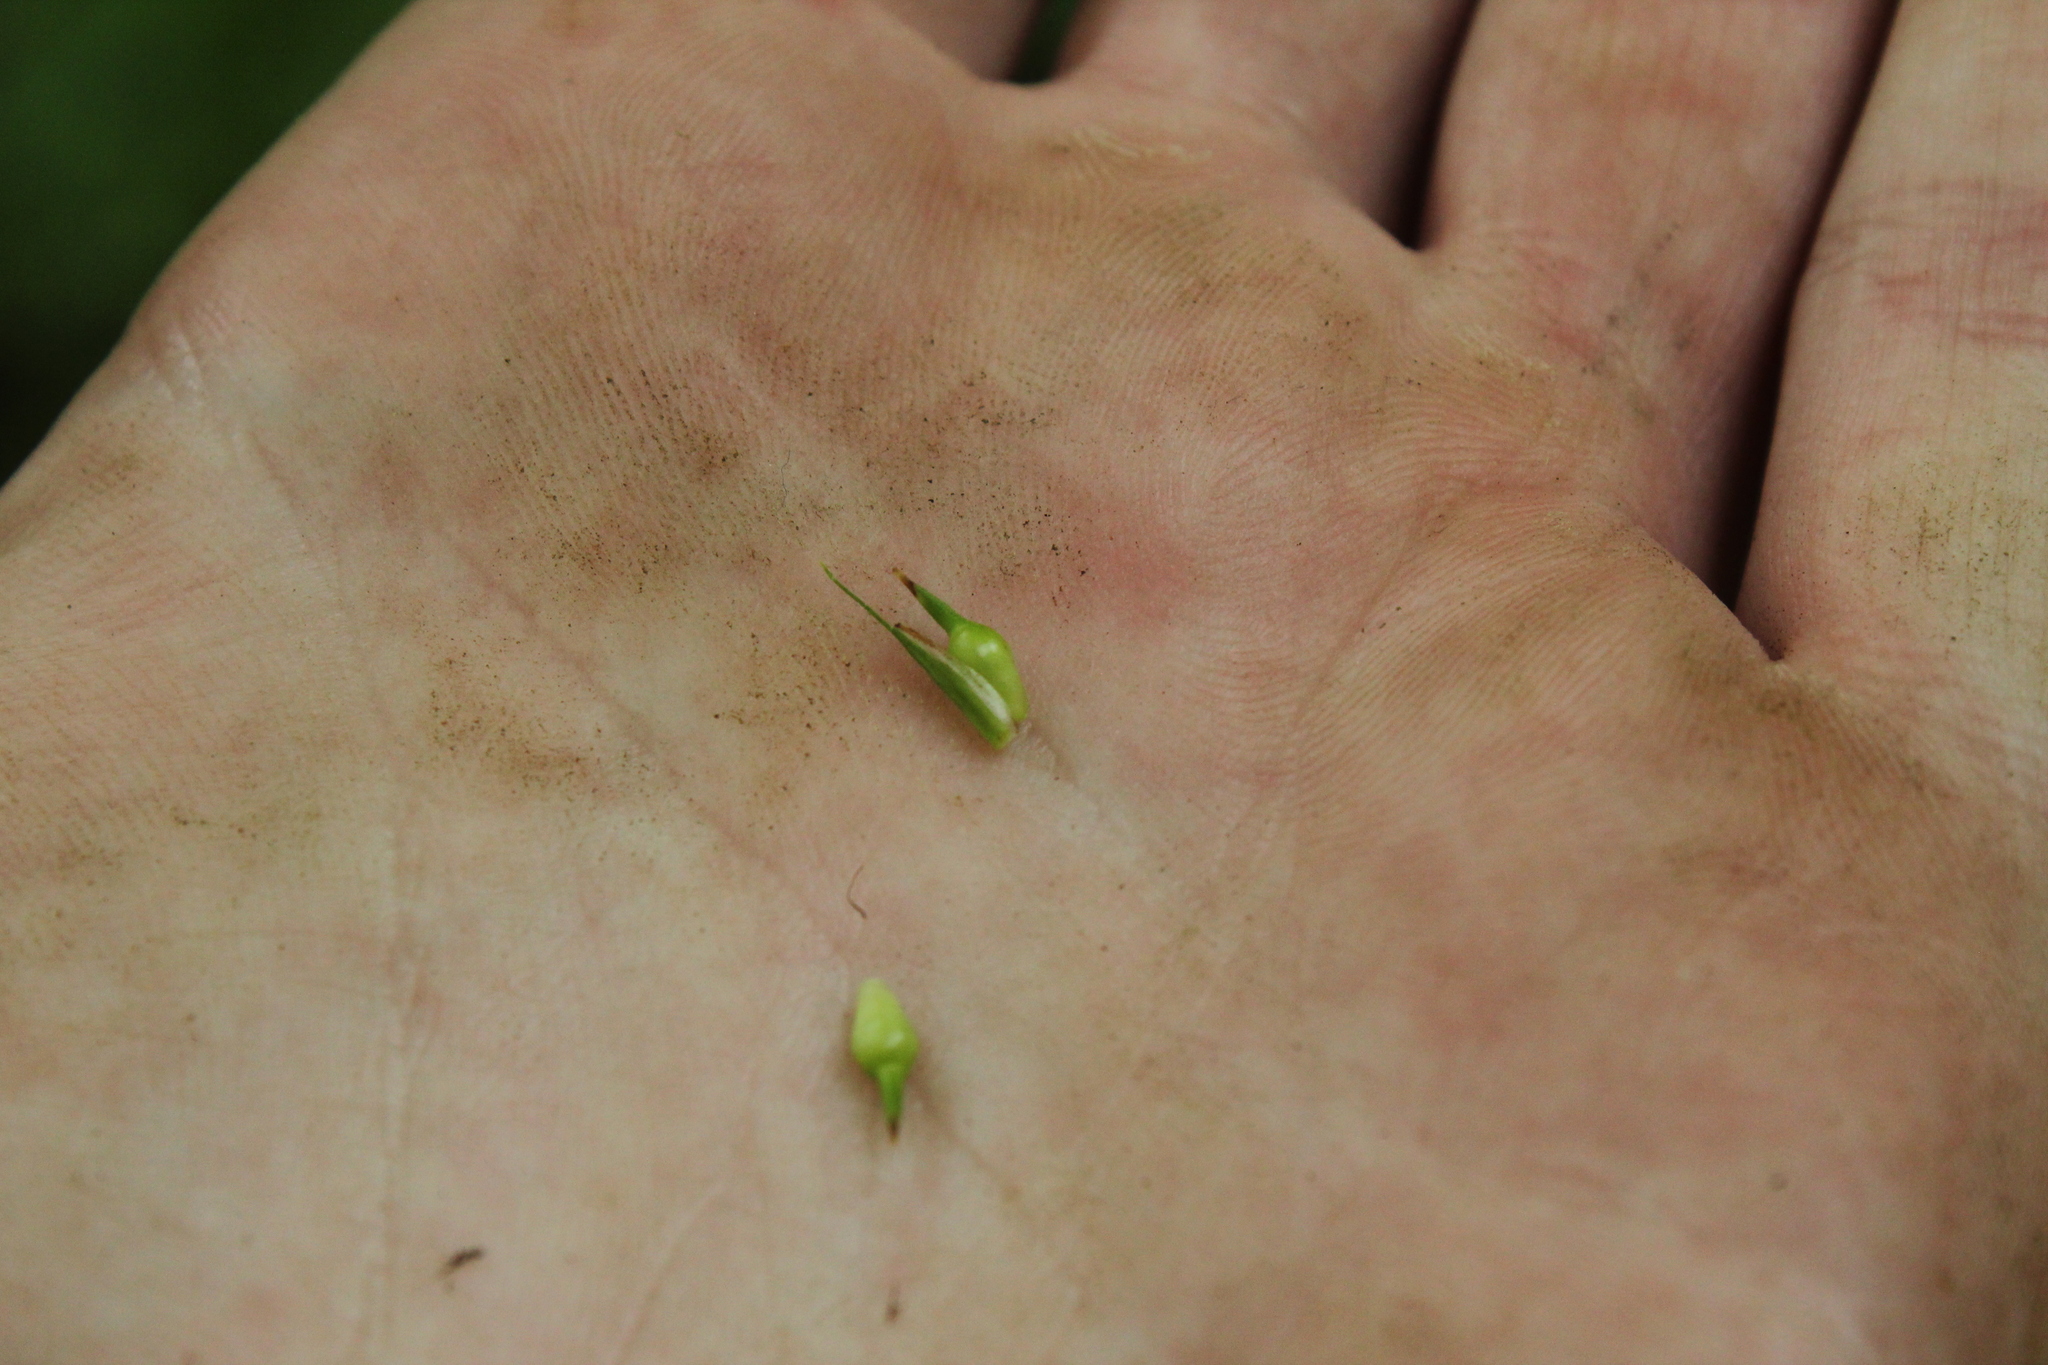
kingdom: Plantae
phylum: Tracheophyta
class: Liliopsida
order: Poales
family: Cyperaceae
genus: Carex
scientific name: Carex jamesii
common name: Grass sedge
